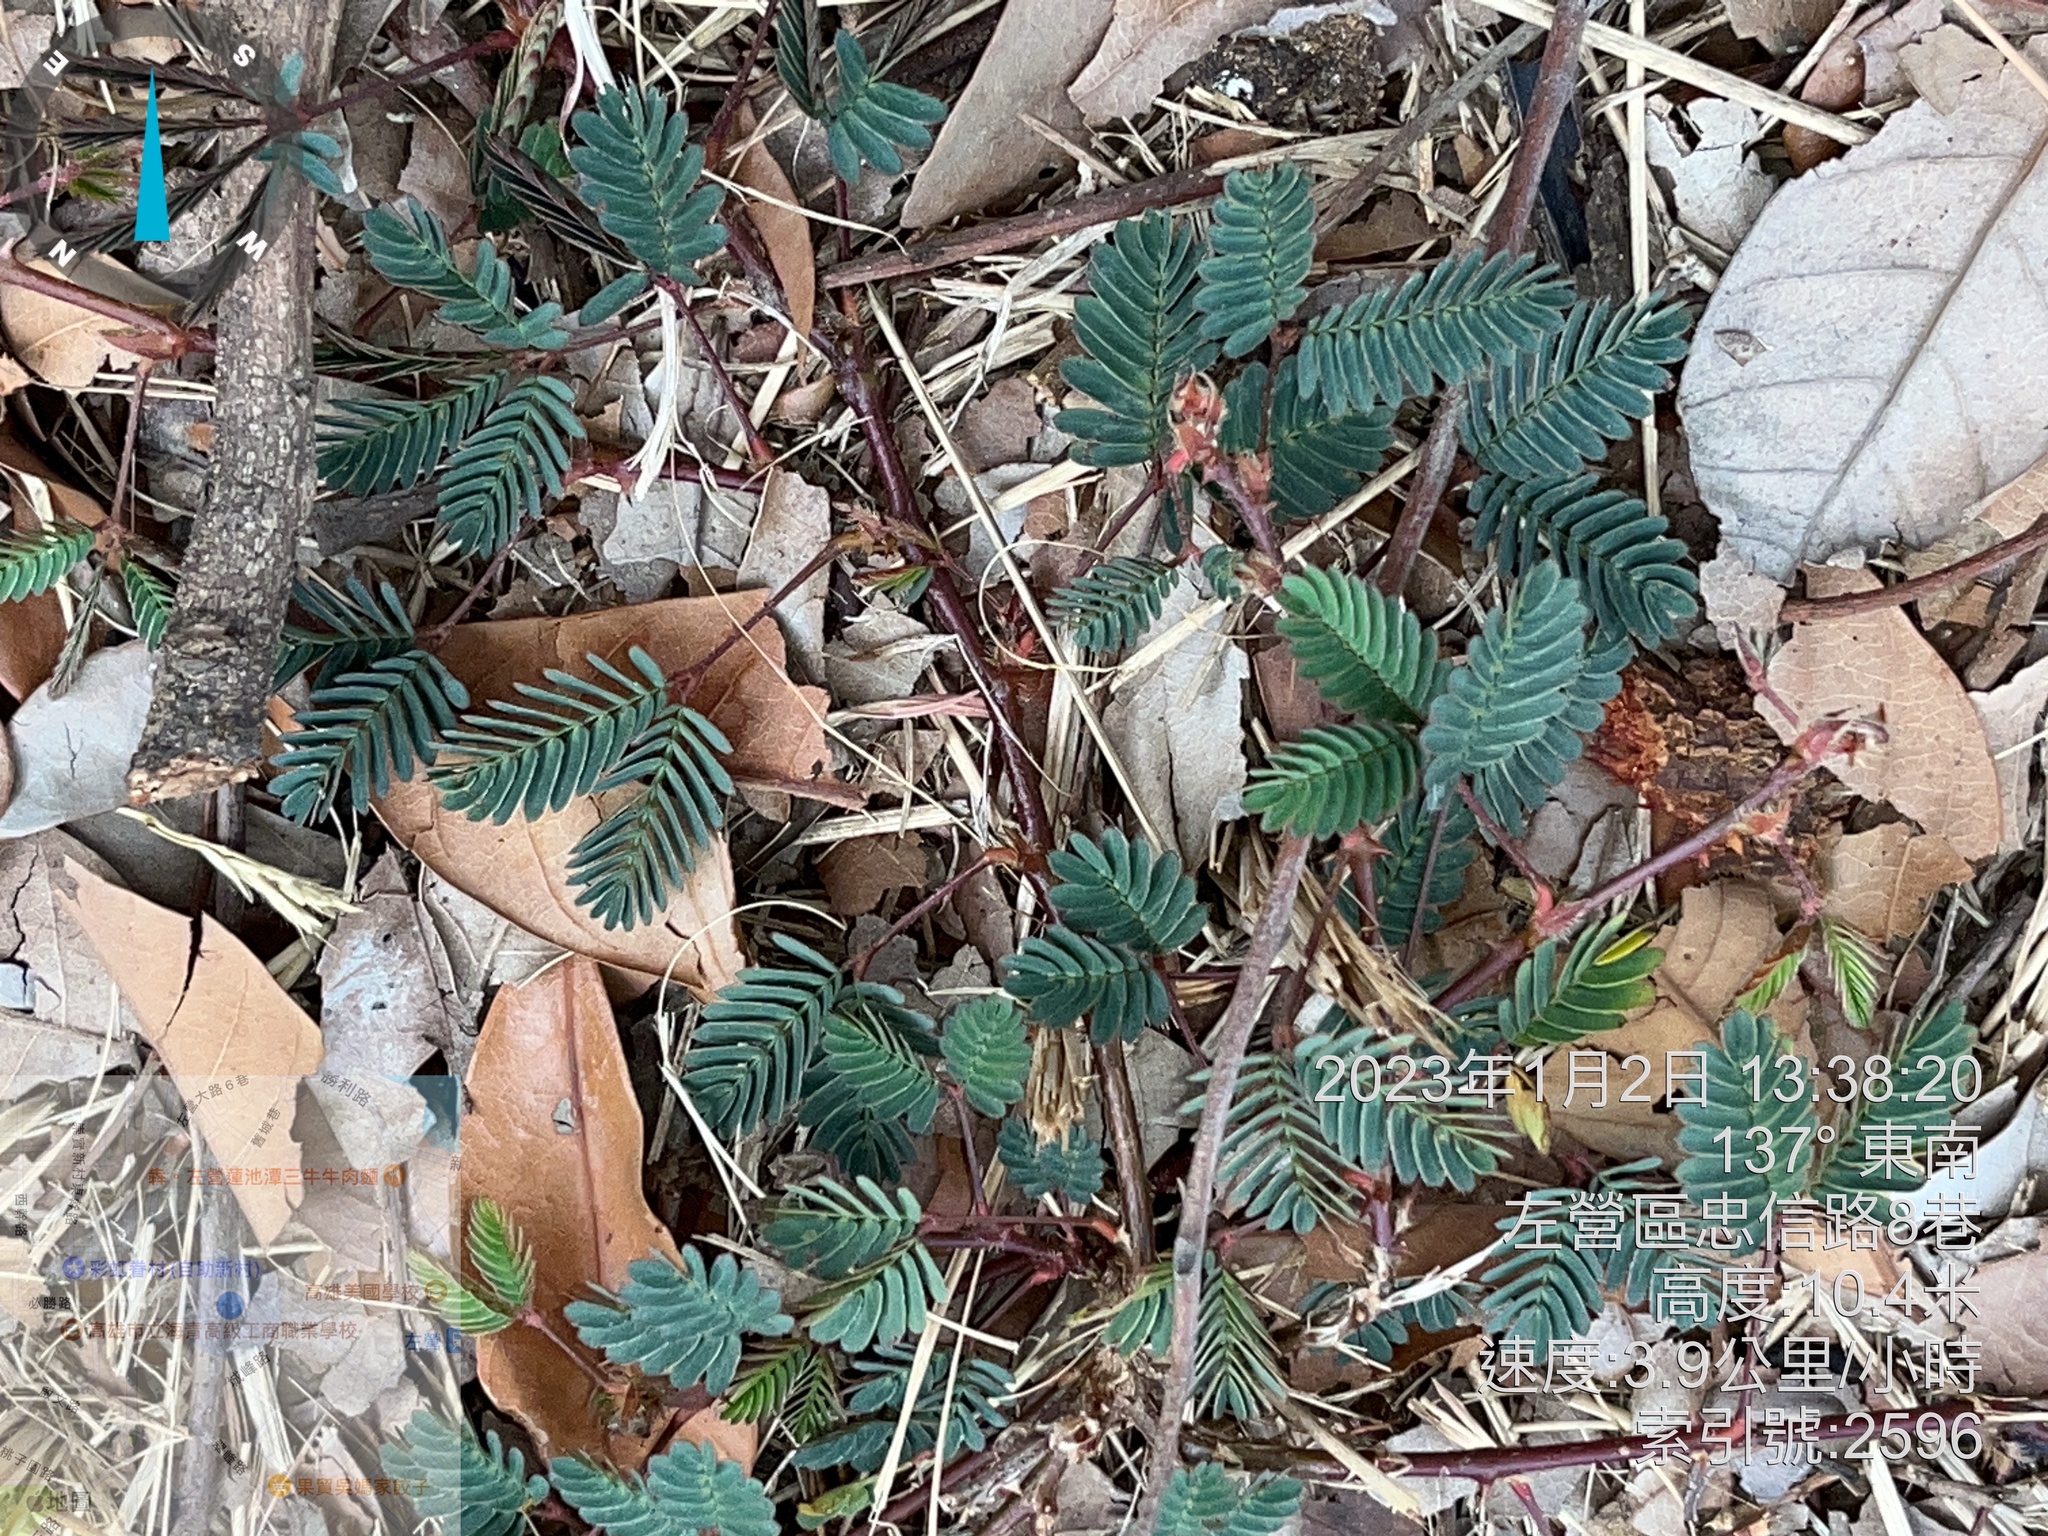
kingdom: Plantae
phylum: Tracheophyta
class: Magnoliopsida
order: Fabales
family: Fabaceae
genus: Mimosa
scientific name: Mimosa pudica
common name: Sensitive plant
